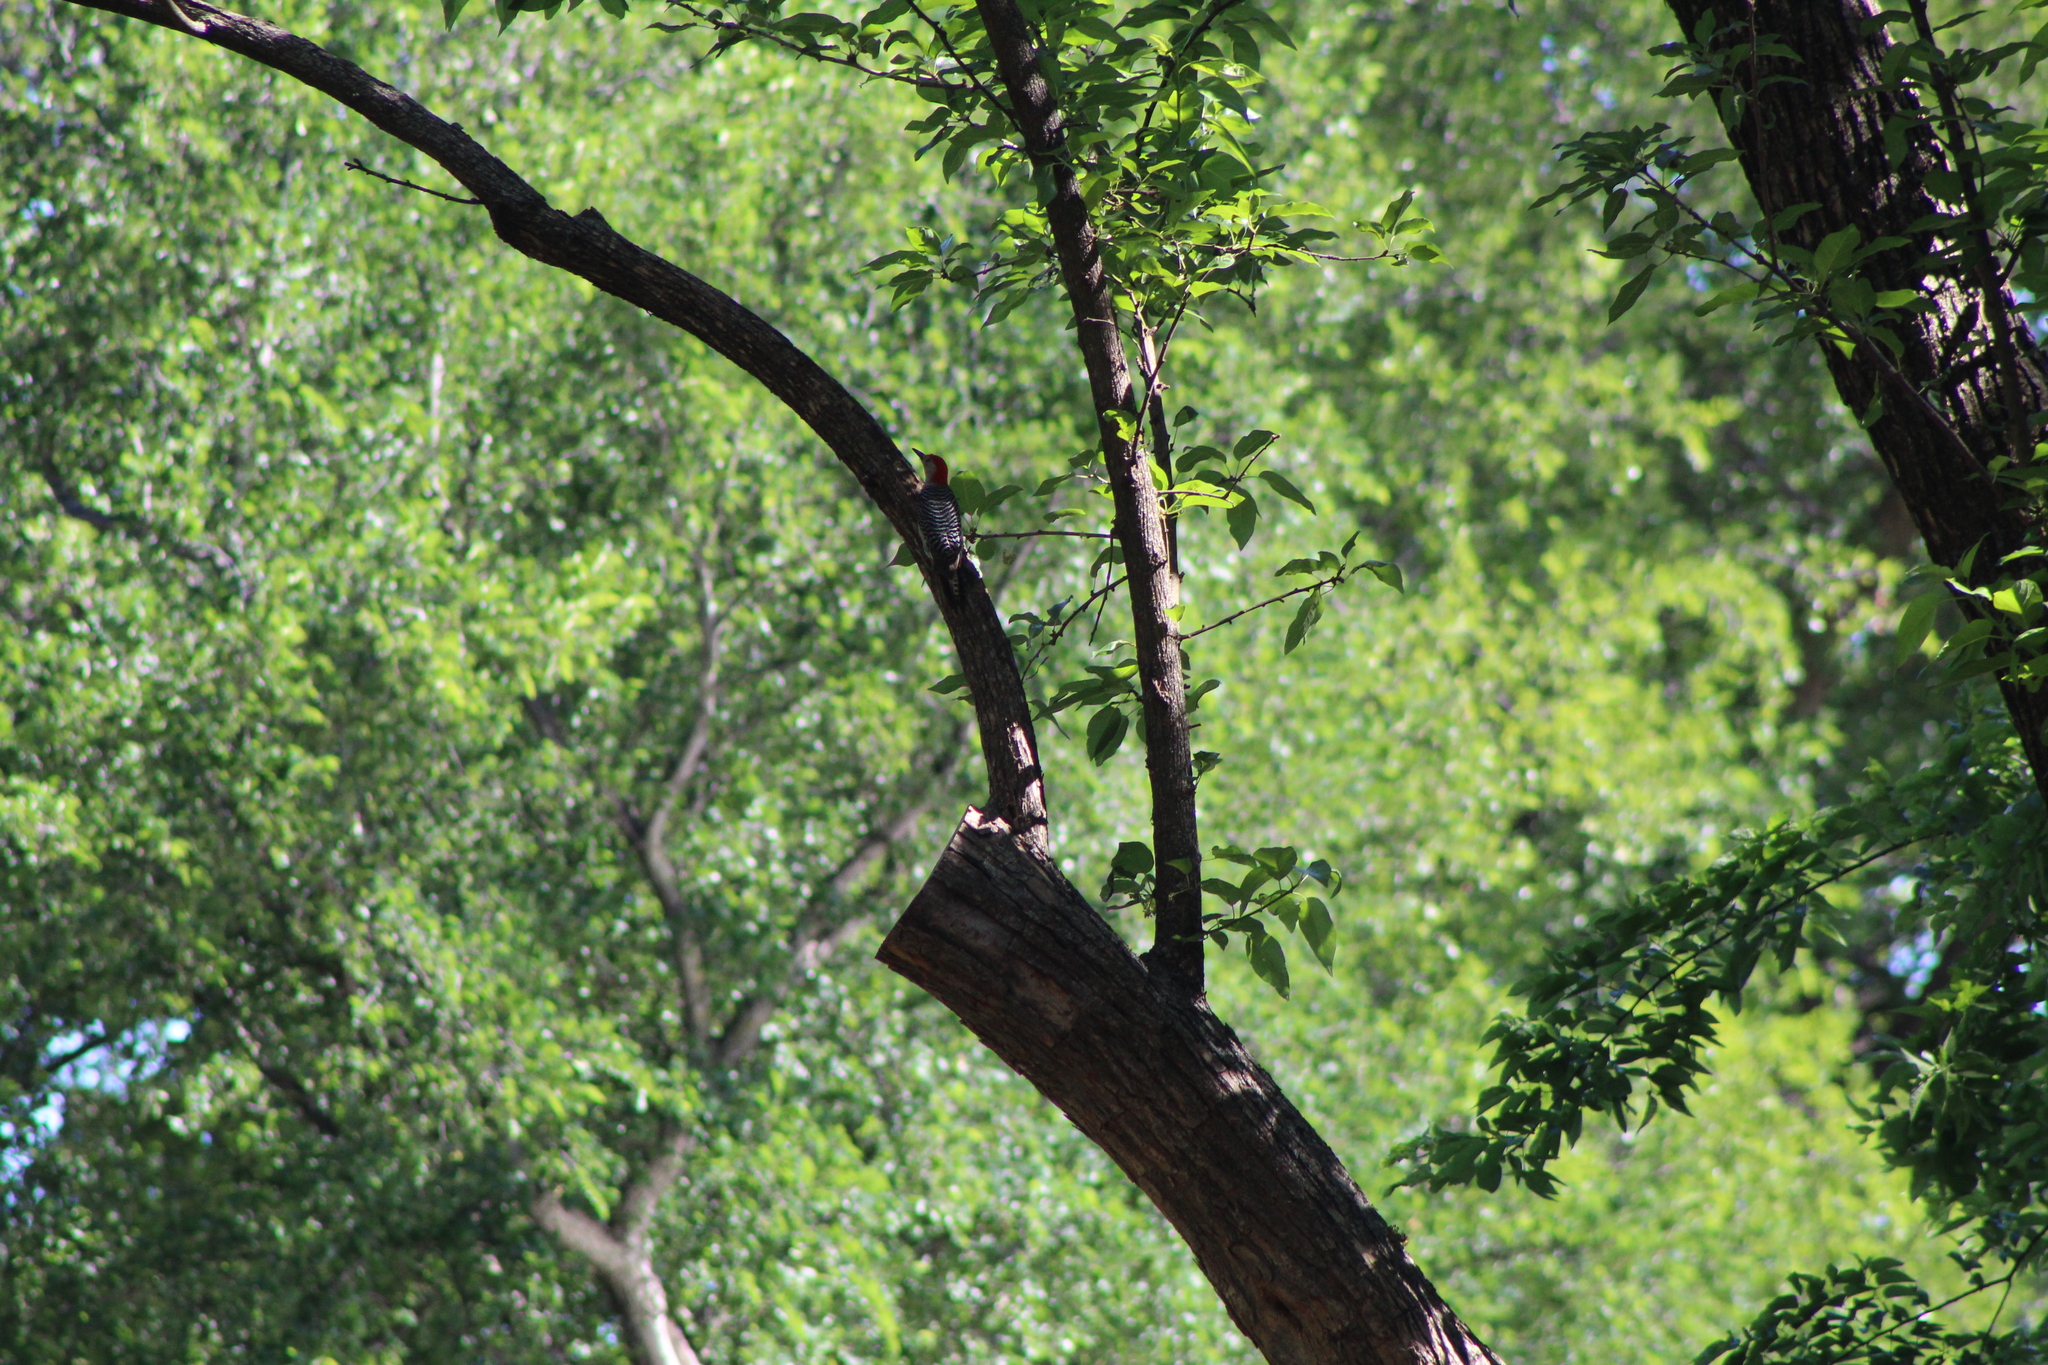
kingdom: Animalia
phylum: Chordata
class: Aves
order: Piciformes
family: Picidae
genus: Melanerpes
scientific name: Melanerpes carolinus
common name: Red-bellied woodpecker
